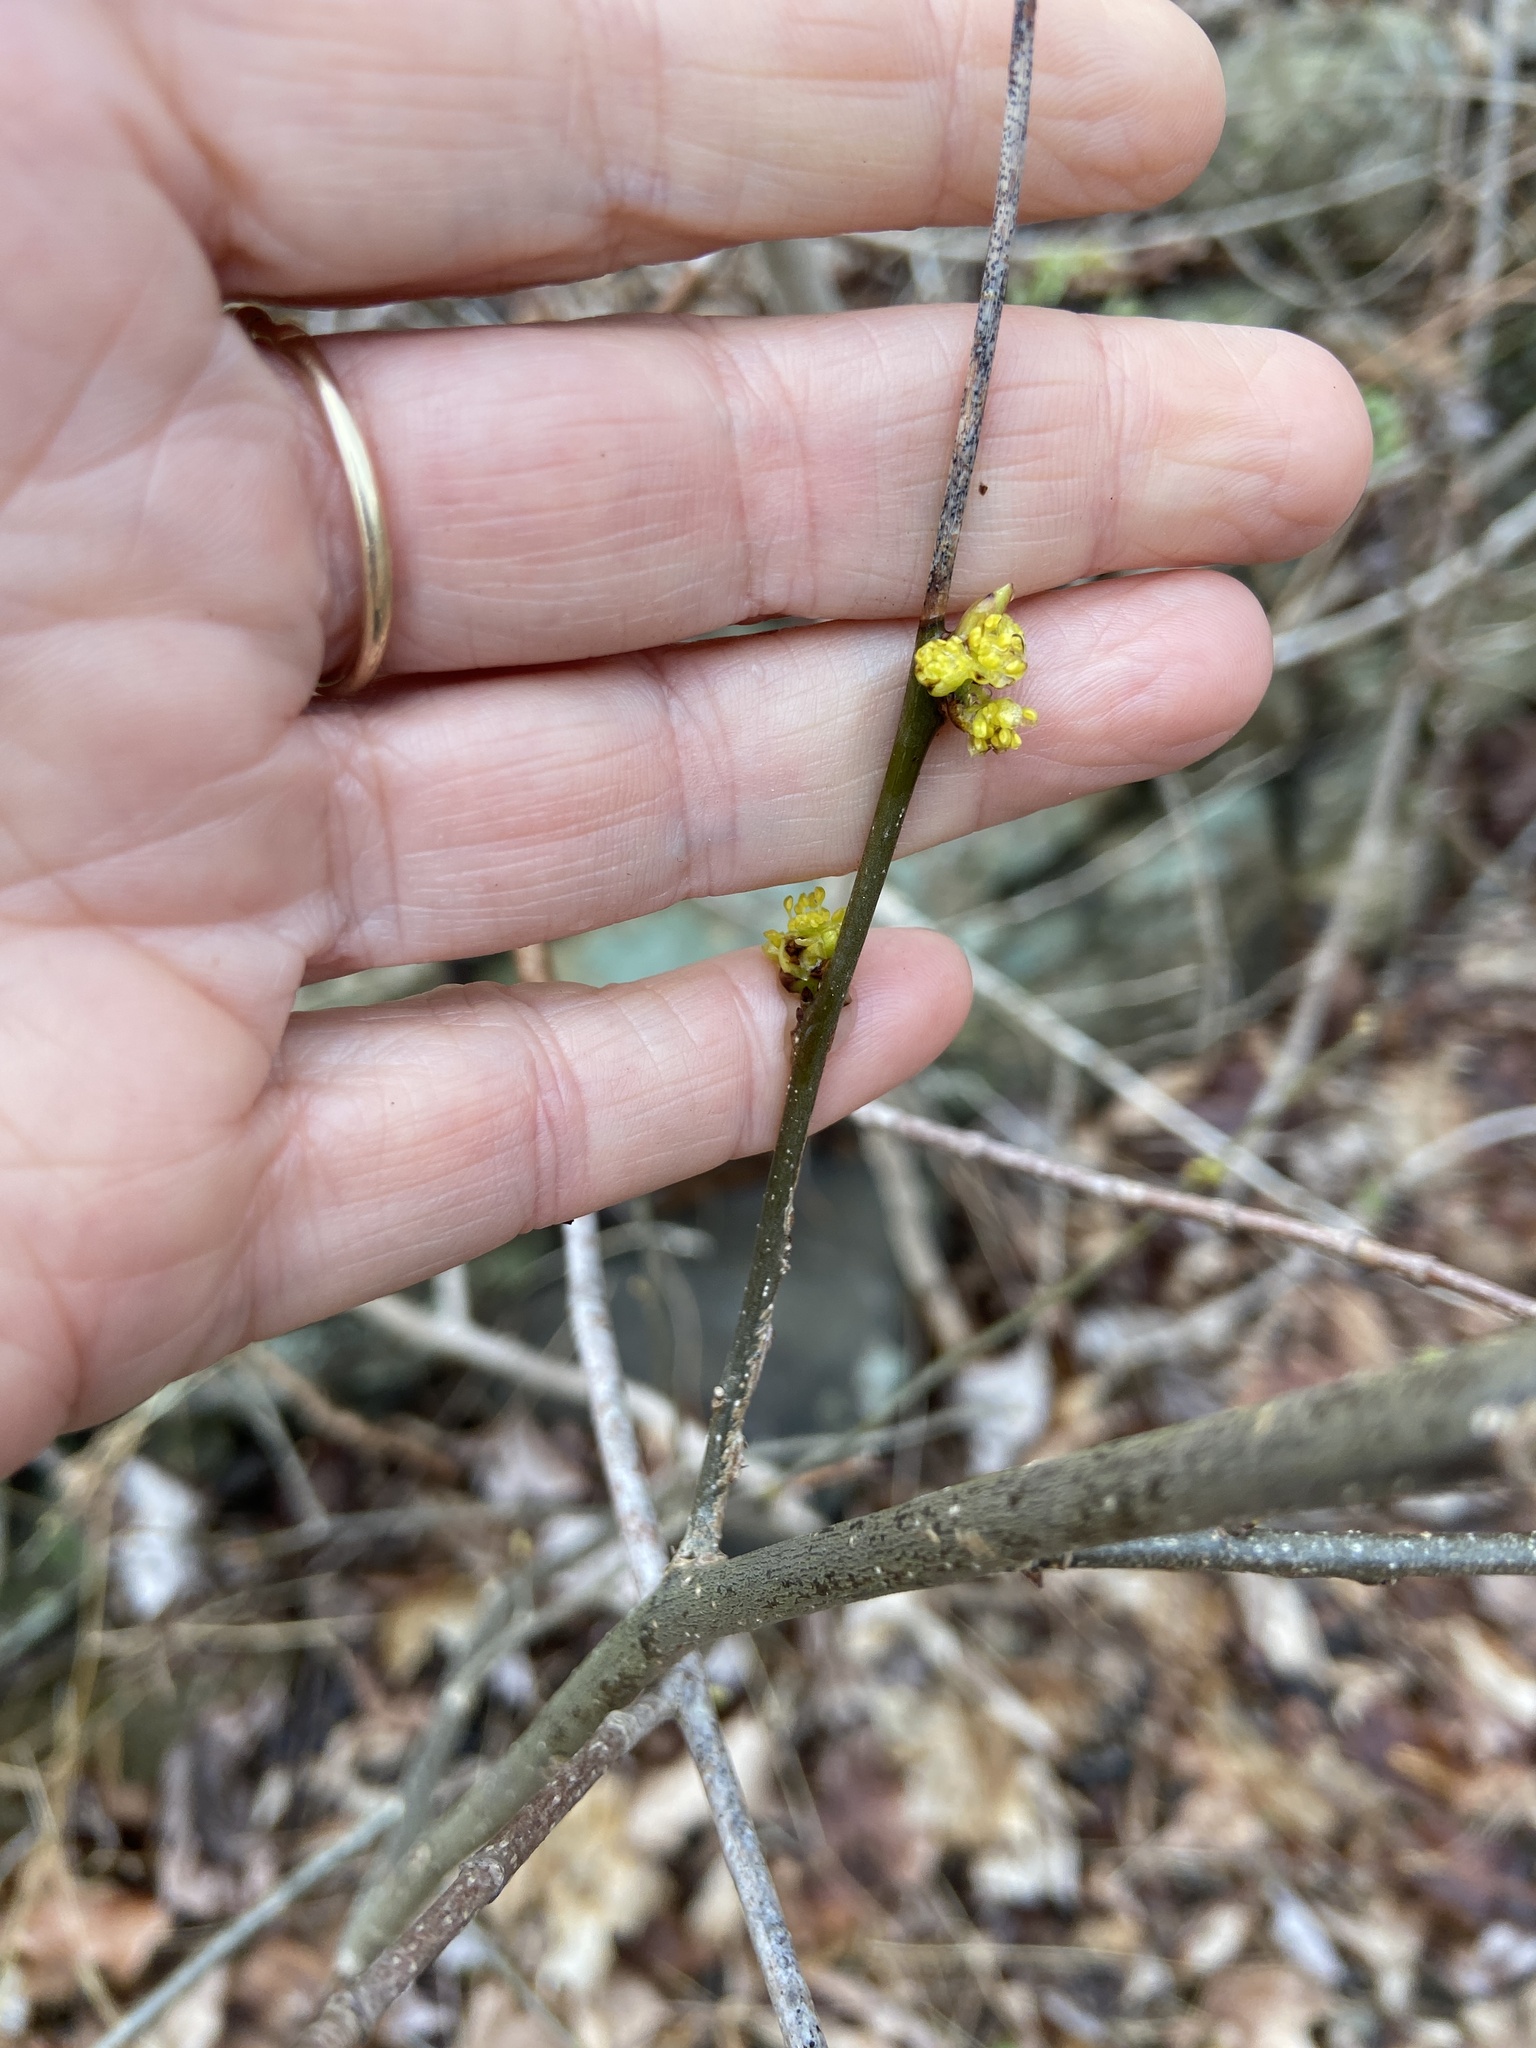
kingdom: Plantae
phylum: Tracheophyta
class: Magnoliopsida
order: Laurales
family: Lauraceae
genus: Lindera
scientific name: Lindera benzoin
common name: Spicebush
